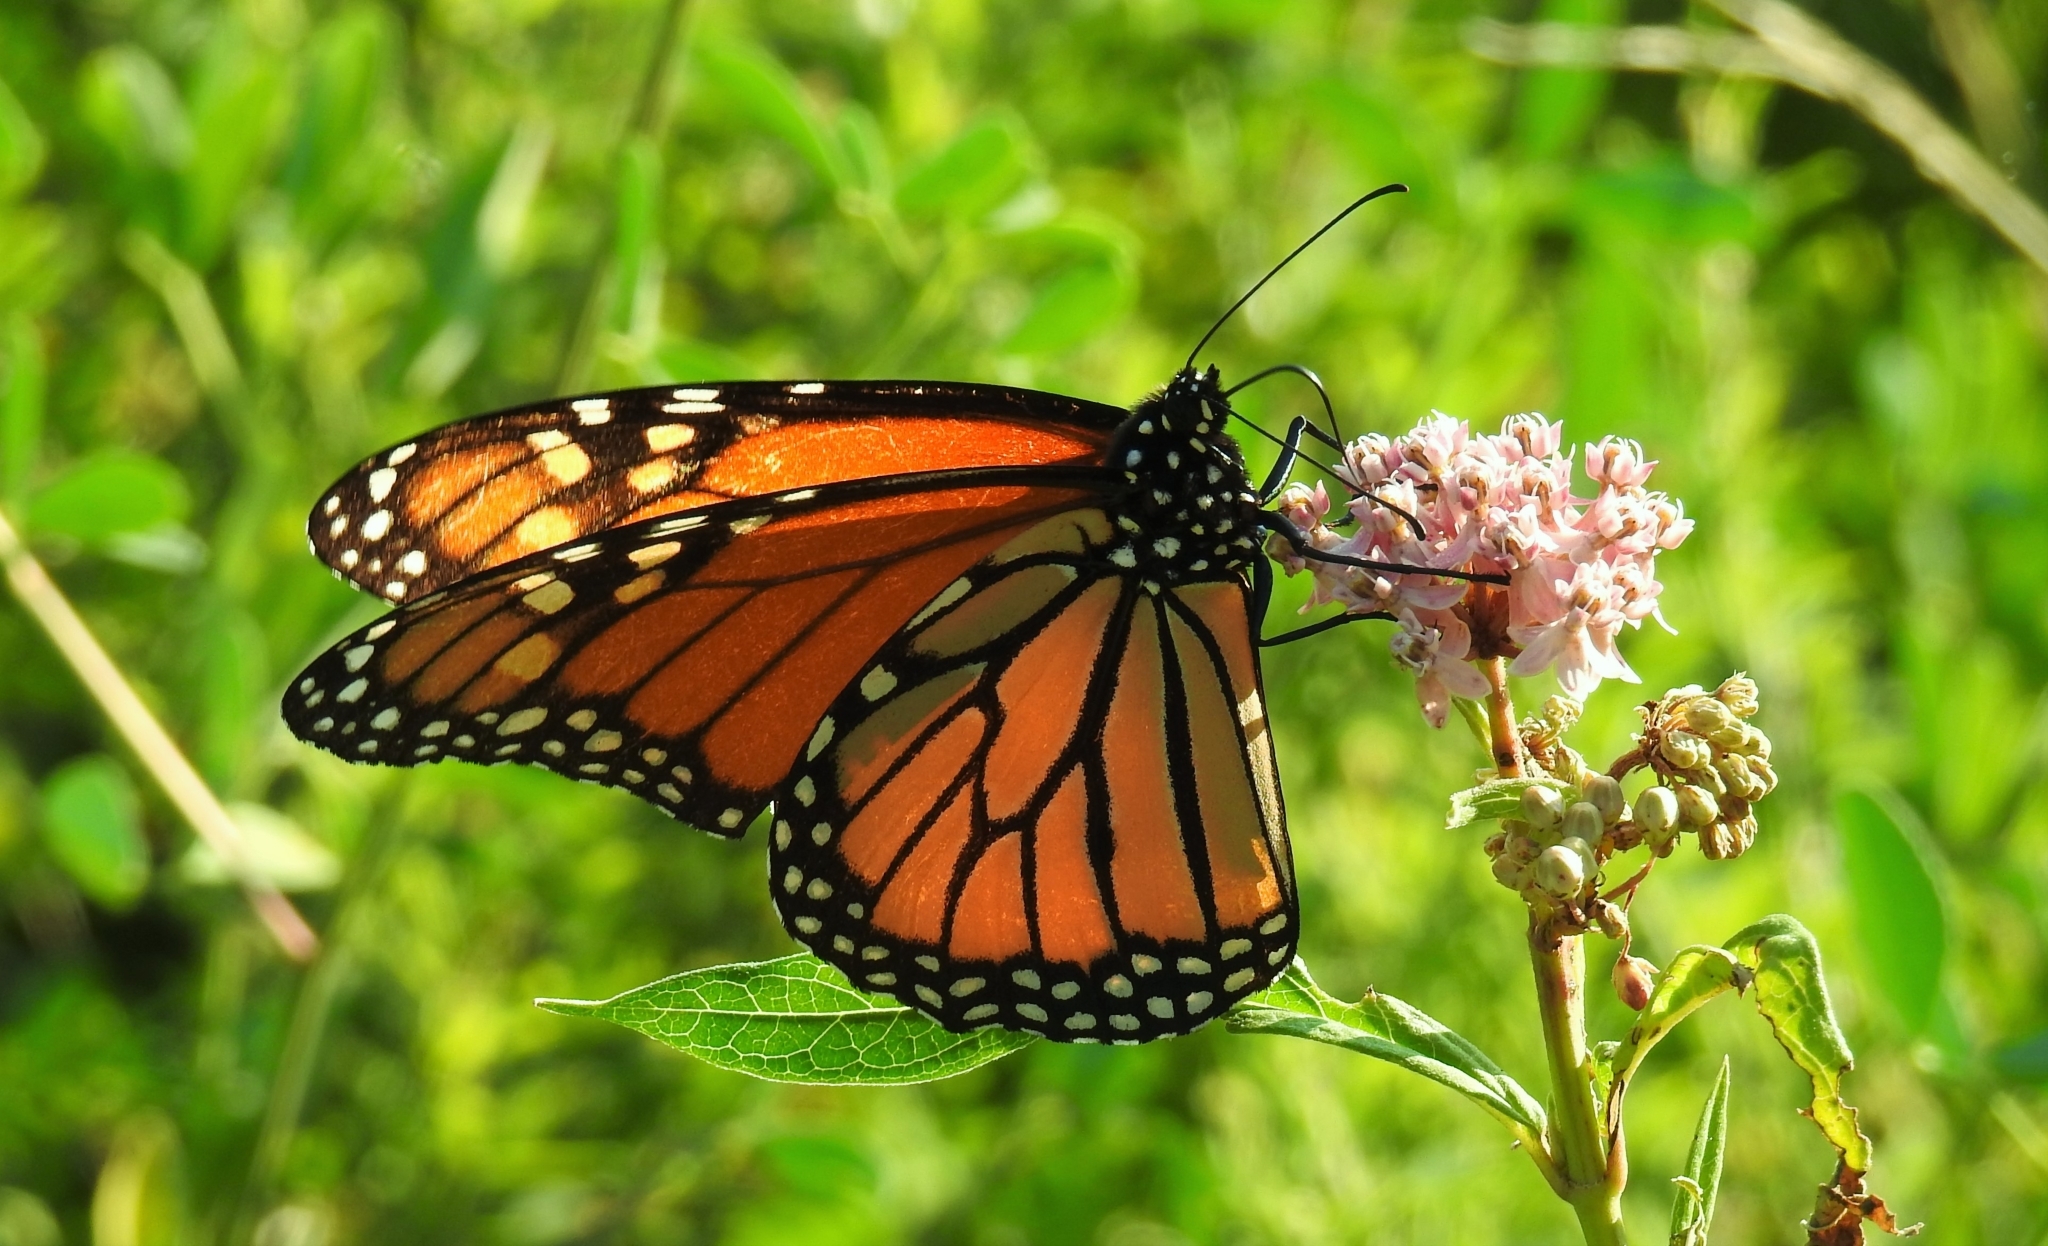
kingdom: Animalia
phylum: Arthropoda
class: Insecta
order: Lepidoptera
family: Nymphalidae
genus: Danaus
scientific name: Danaus plexippus
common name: Monarch
